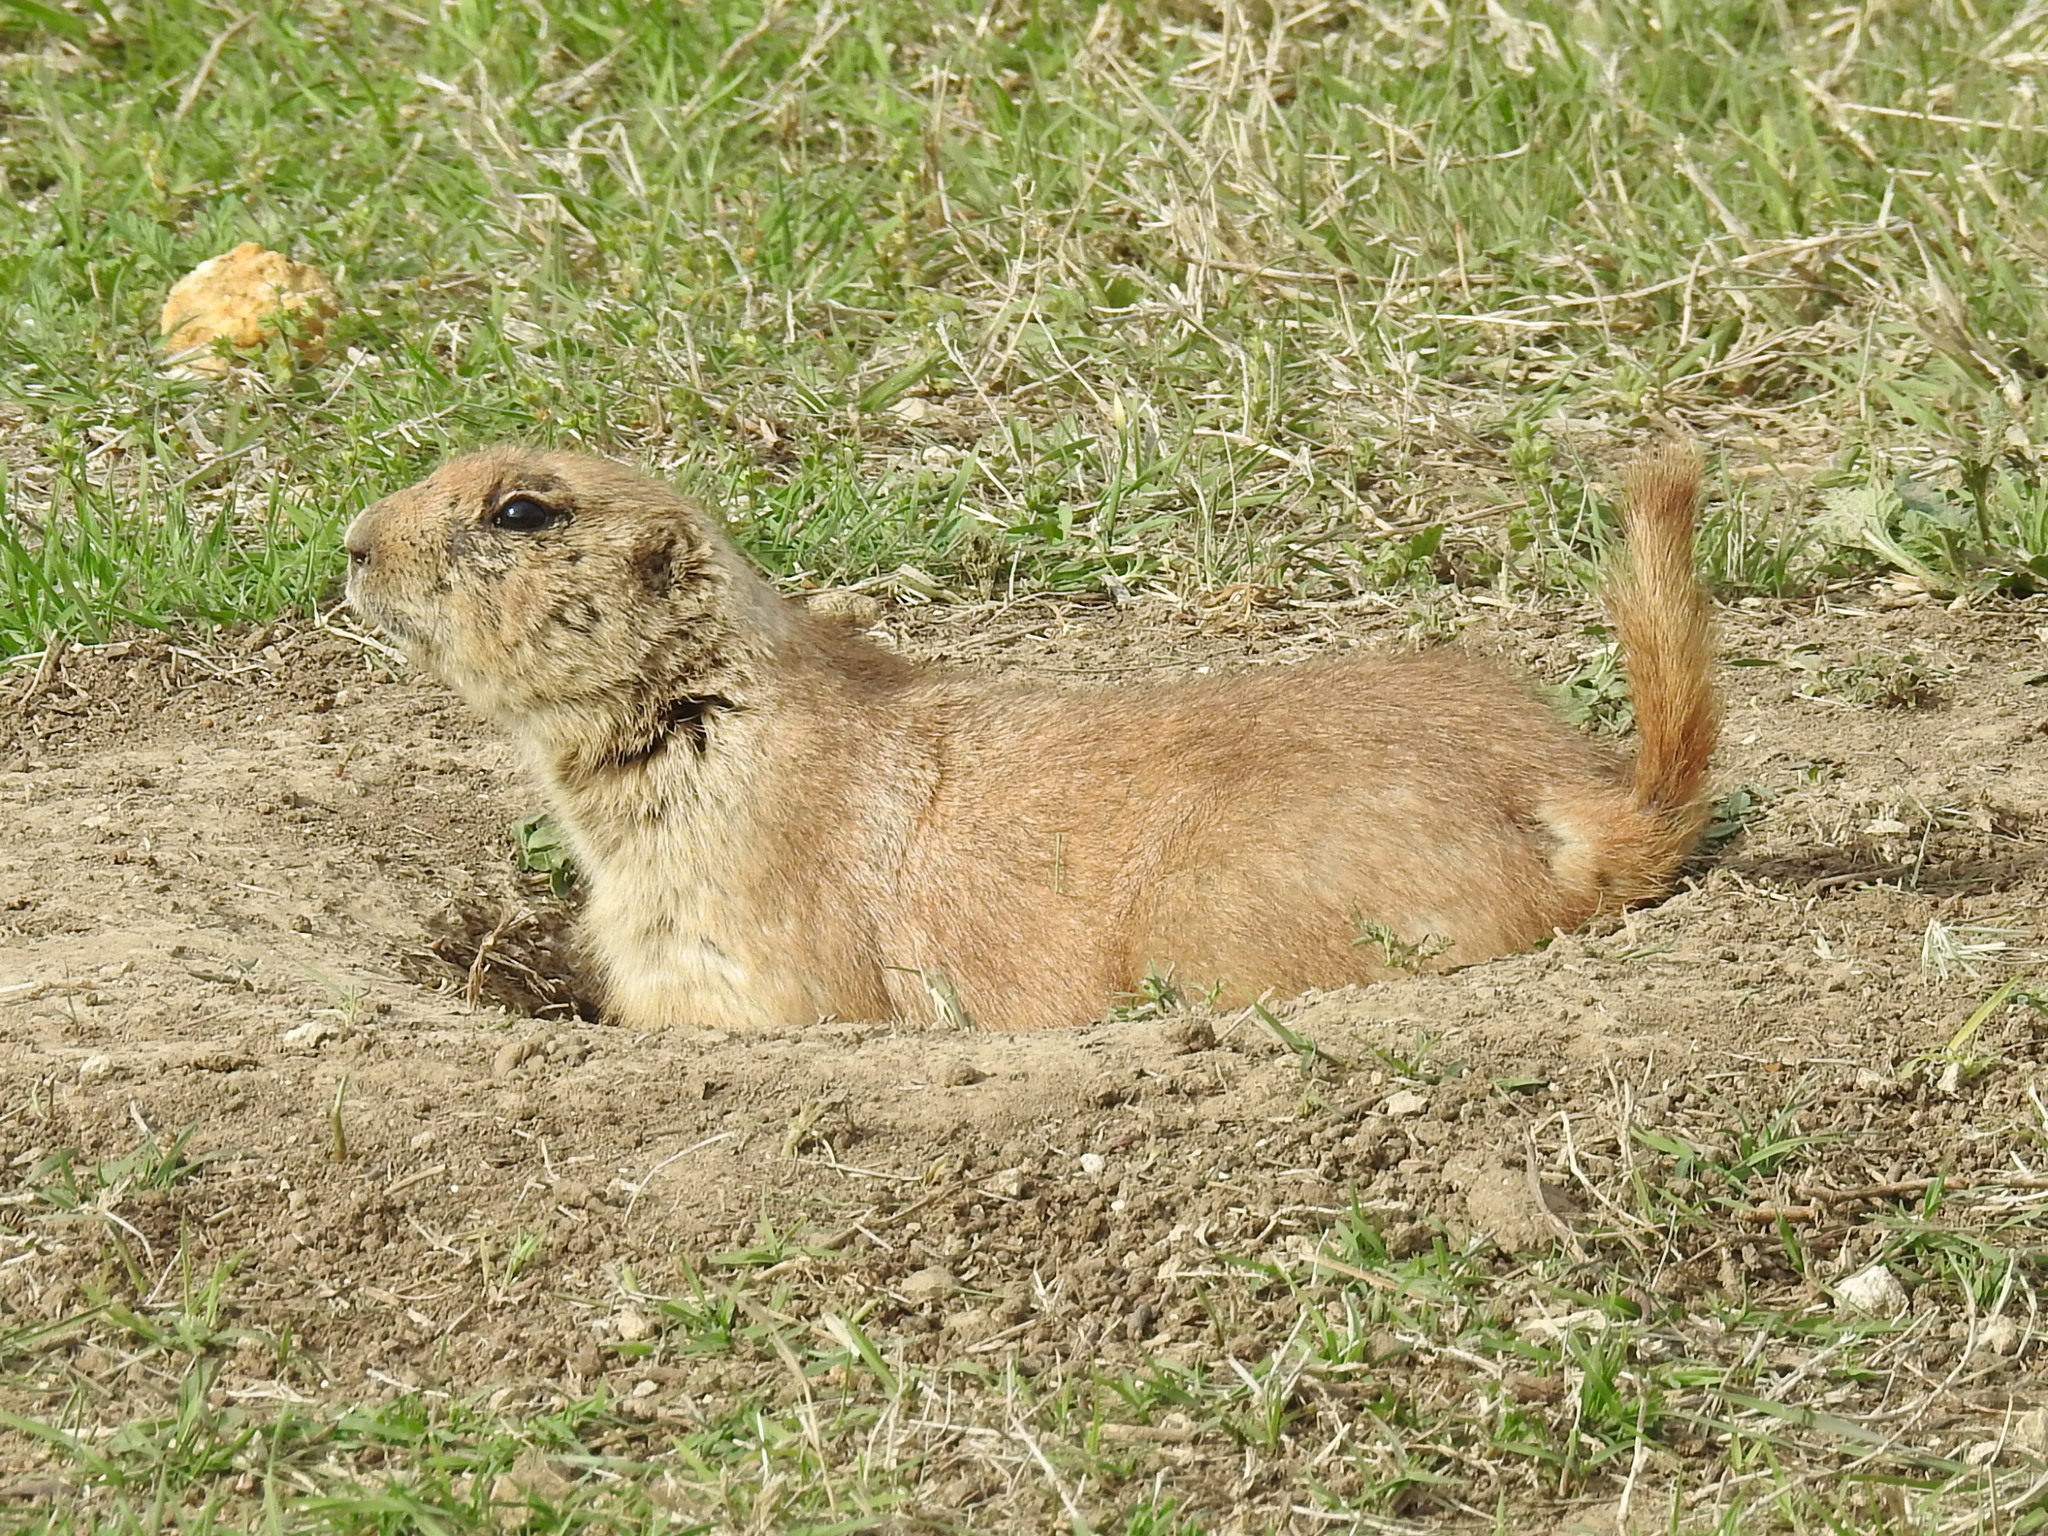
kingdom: Animalia
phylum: Chordata
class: Mammalia
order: Rodentia
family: Sciuridae
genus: Cynomys
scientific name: Cynomys ludovicianus
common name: Black-tailed prairie dog
